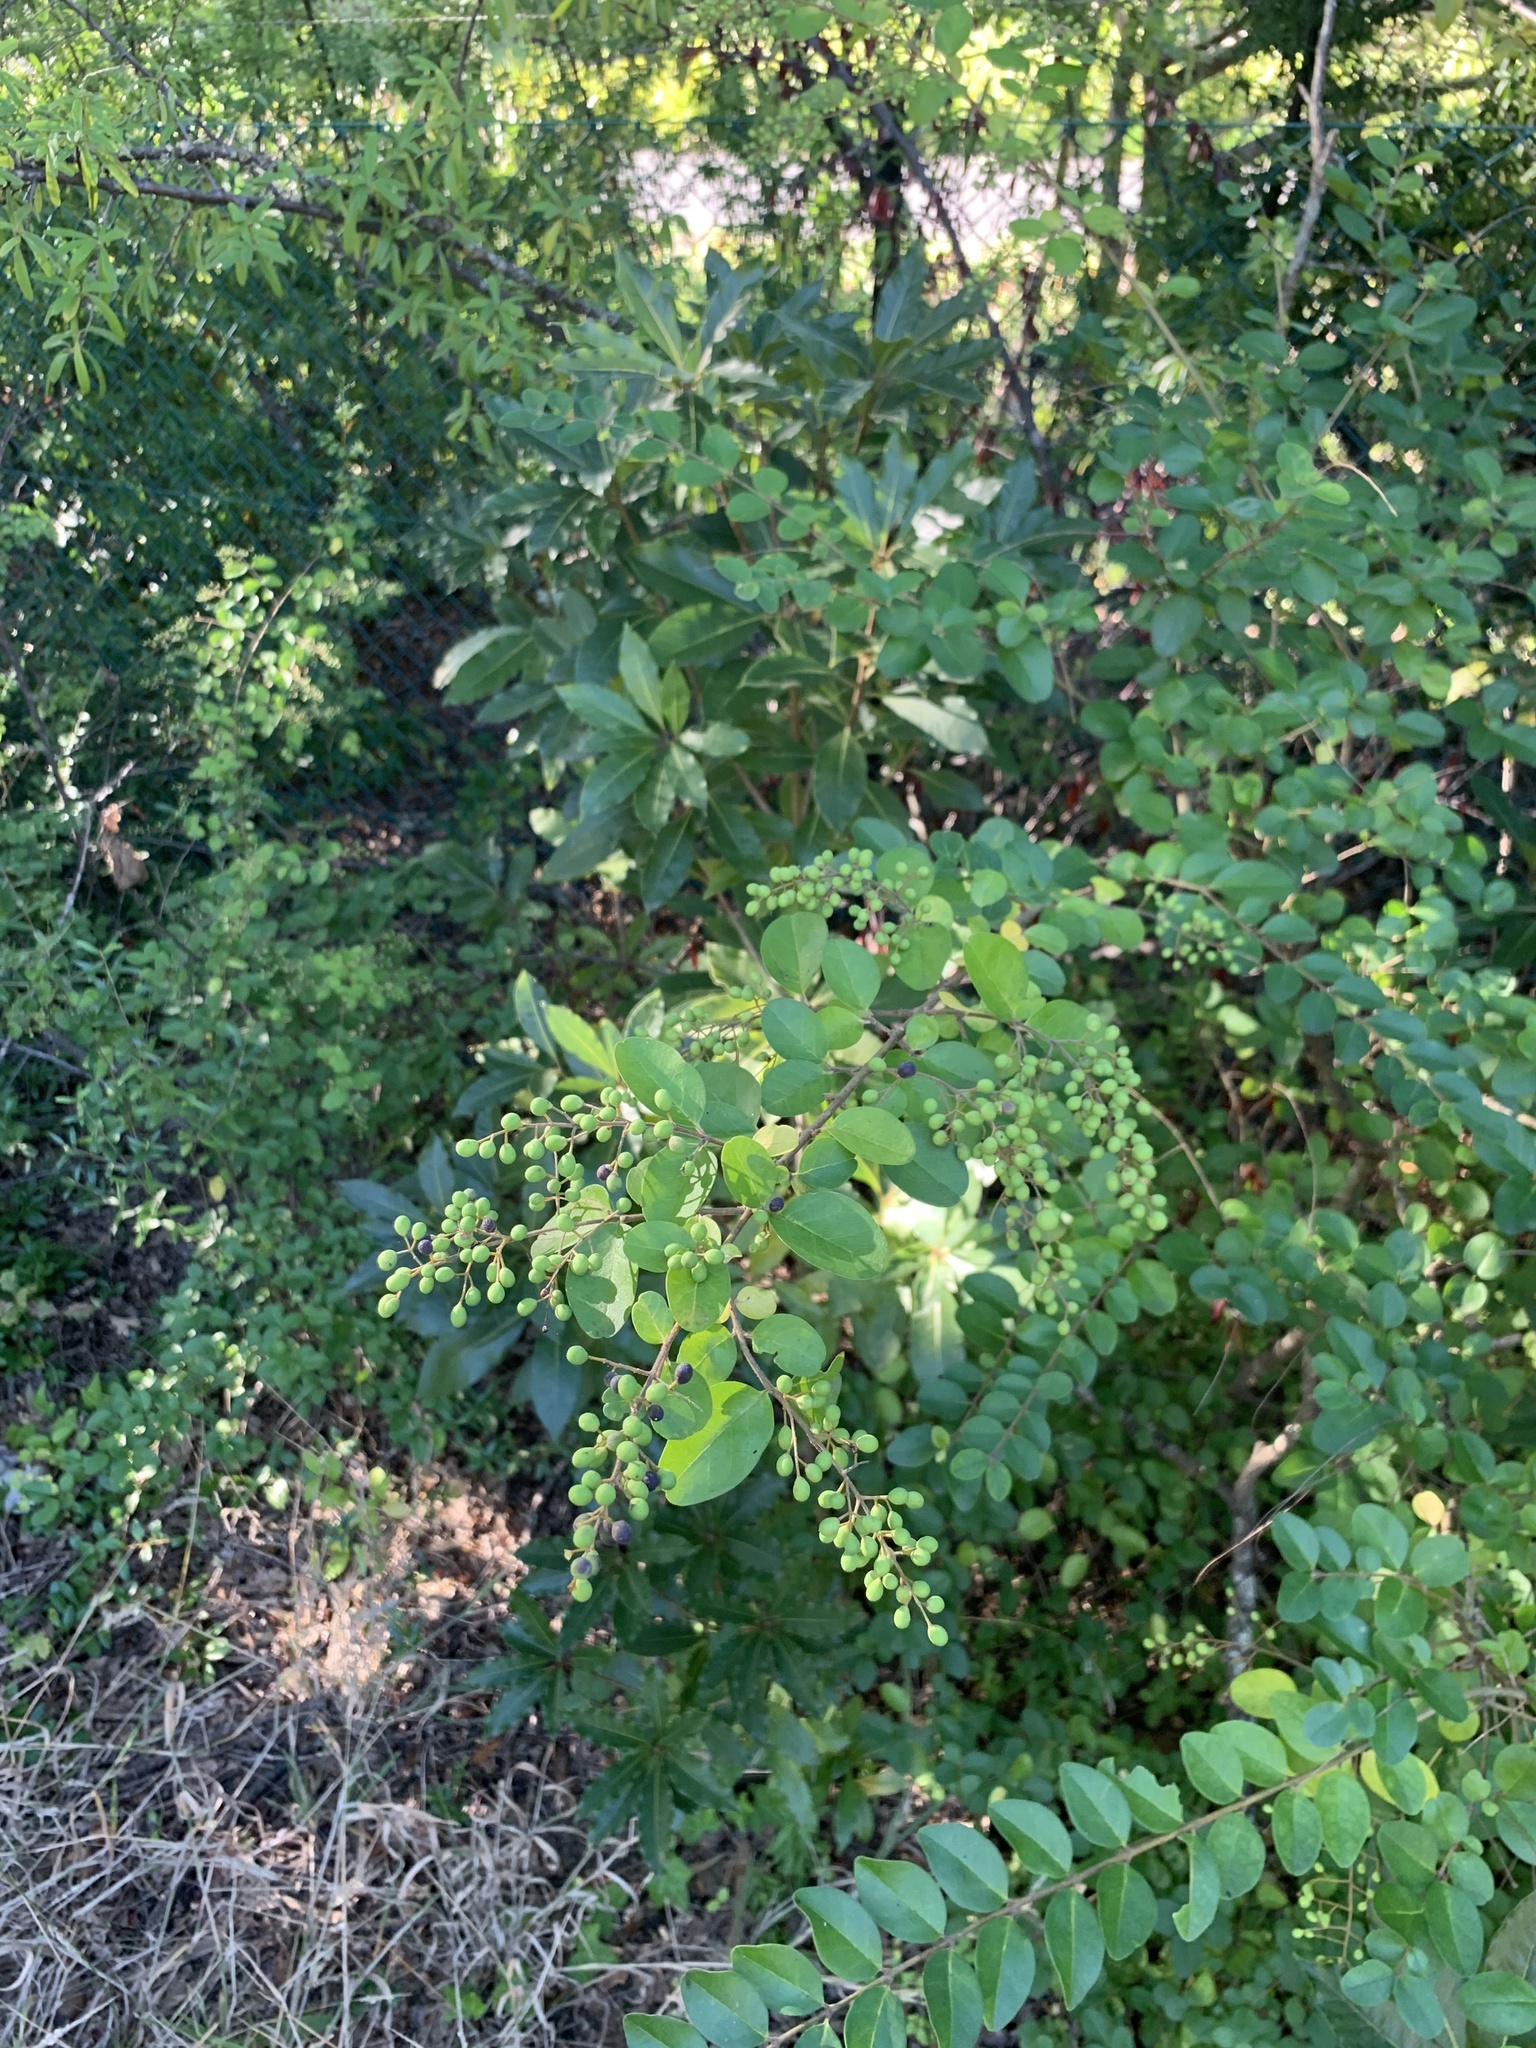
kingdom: Plantae
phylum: Tracheophyta
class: Magnoliopsida
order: Lamiales
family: Oleaceae
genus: Ligustrum
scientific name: Ligustrum sinense
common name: Chinese privet
